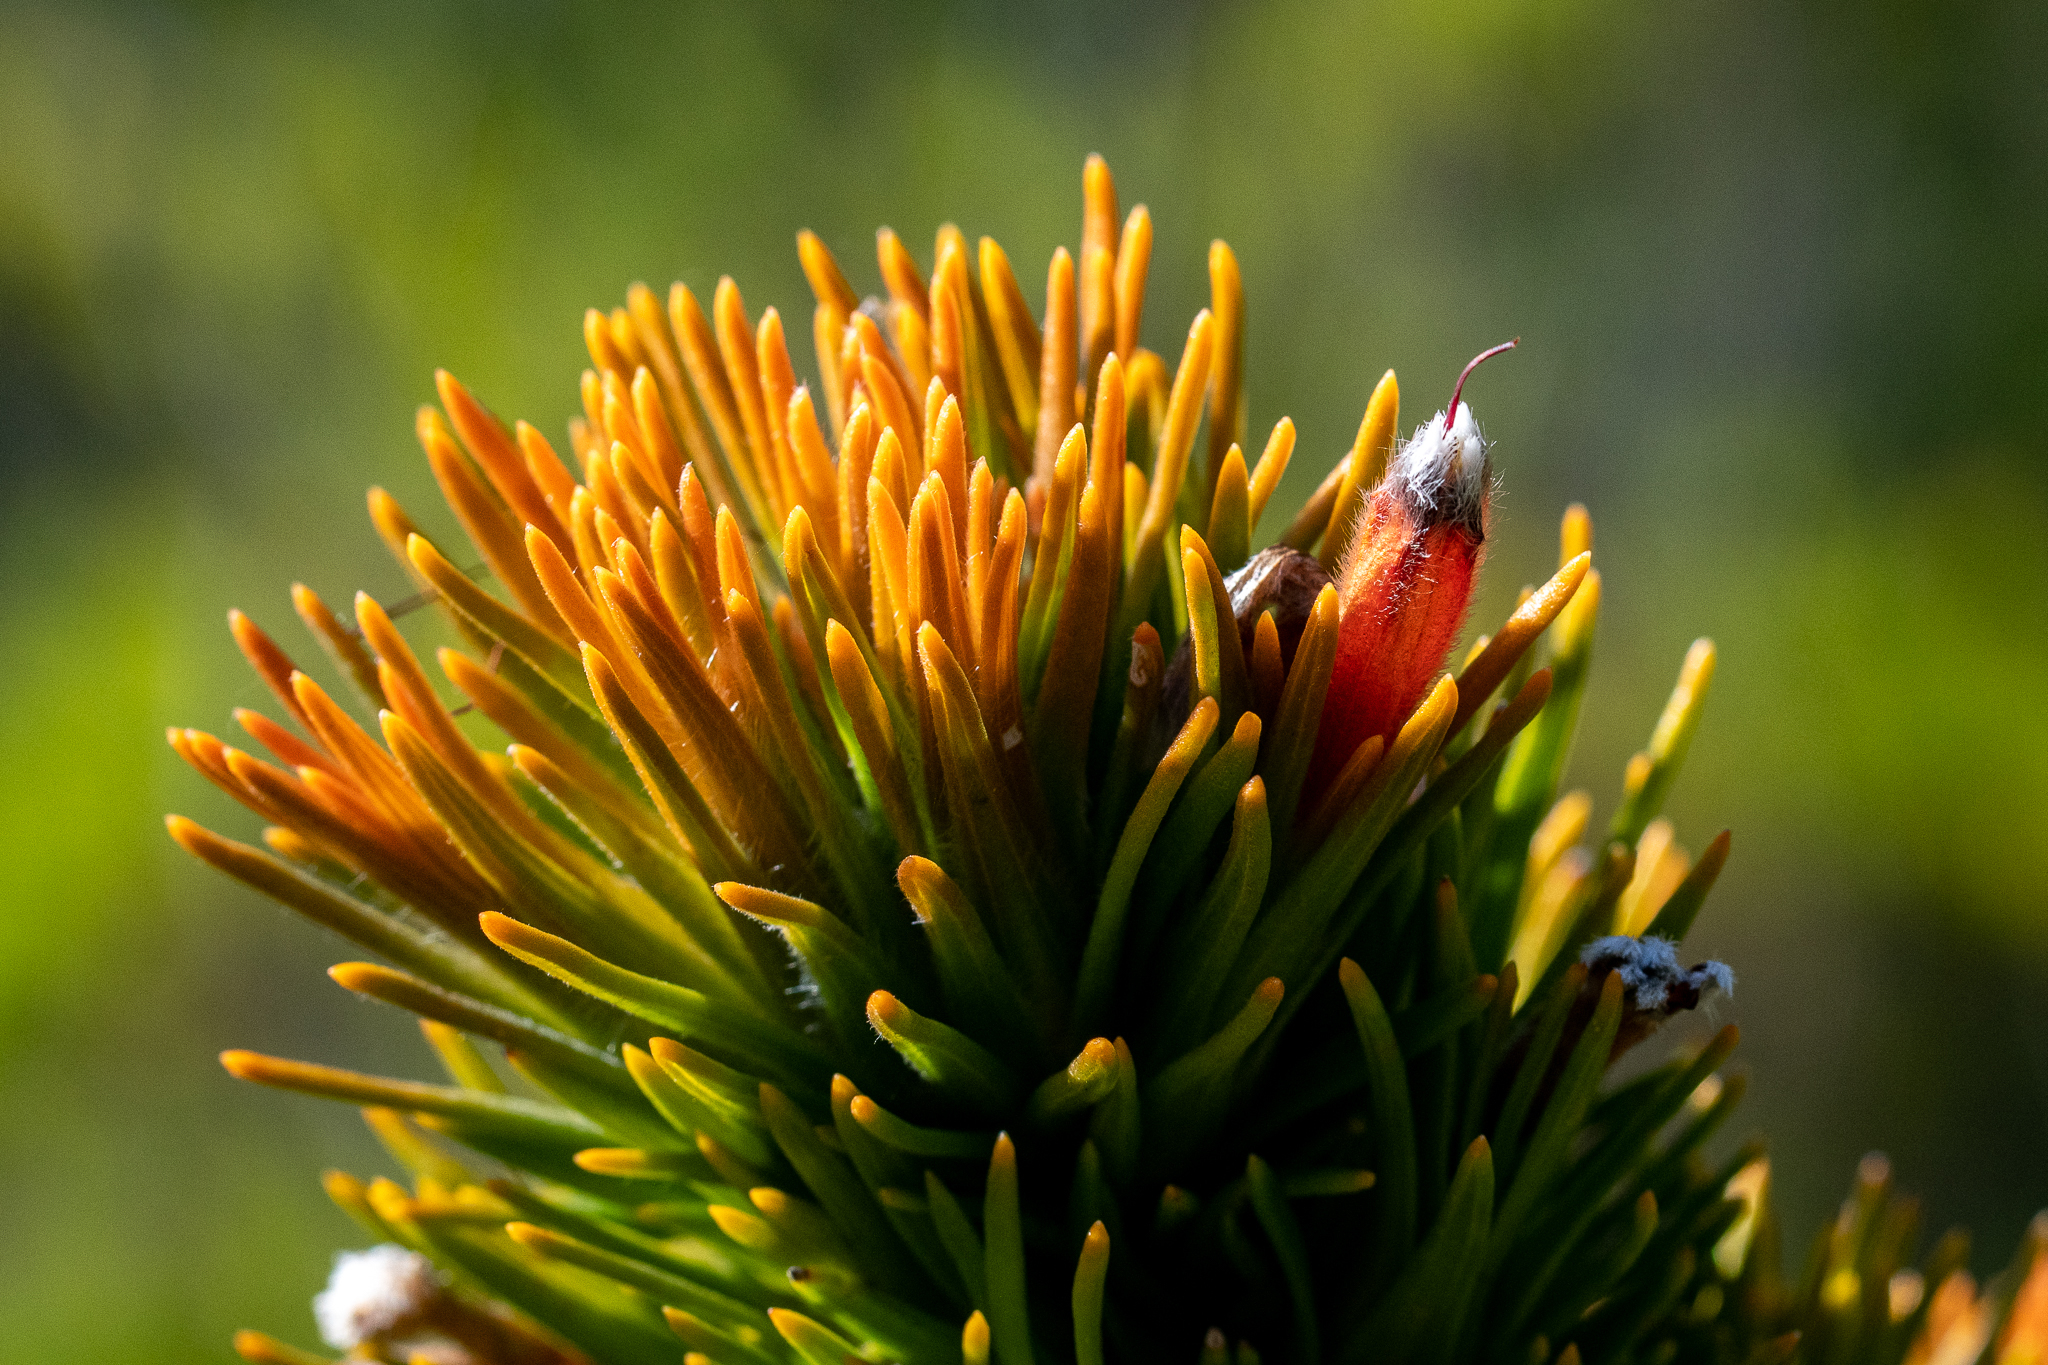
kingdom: Plantae
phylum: Tracheophyta
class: Magnoliopsida
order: Lamiales
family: Stilbaceae
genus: Retzia
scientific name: Retzia capensis
